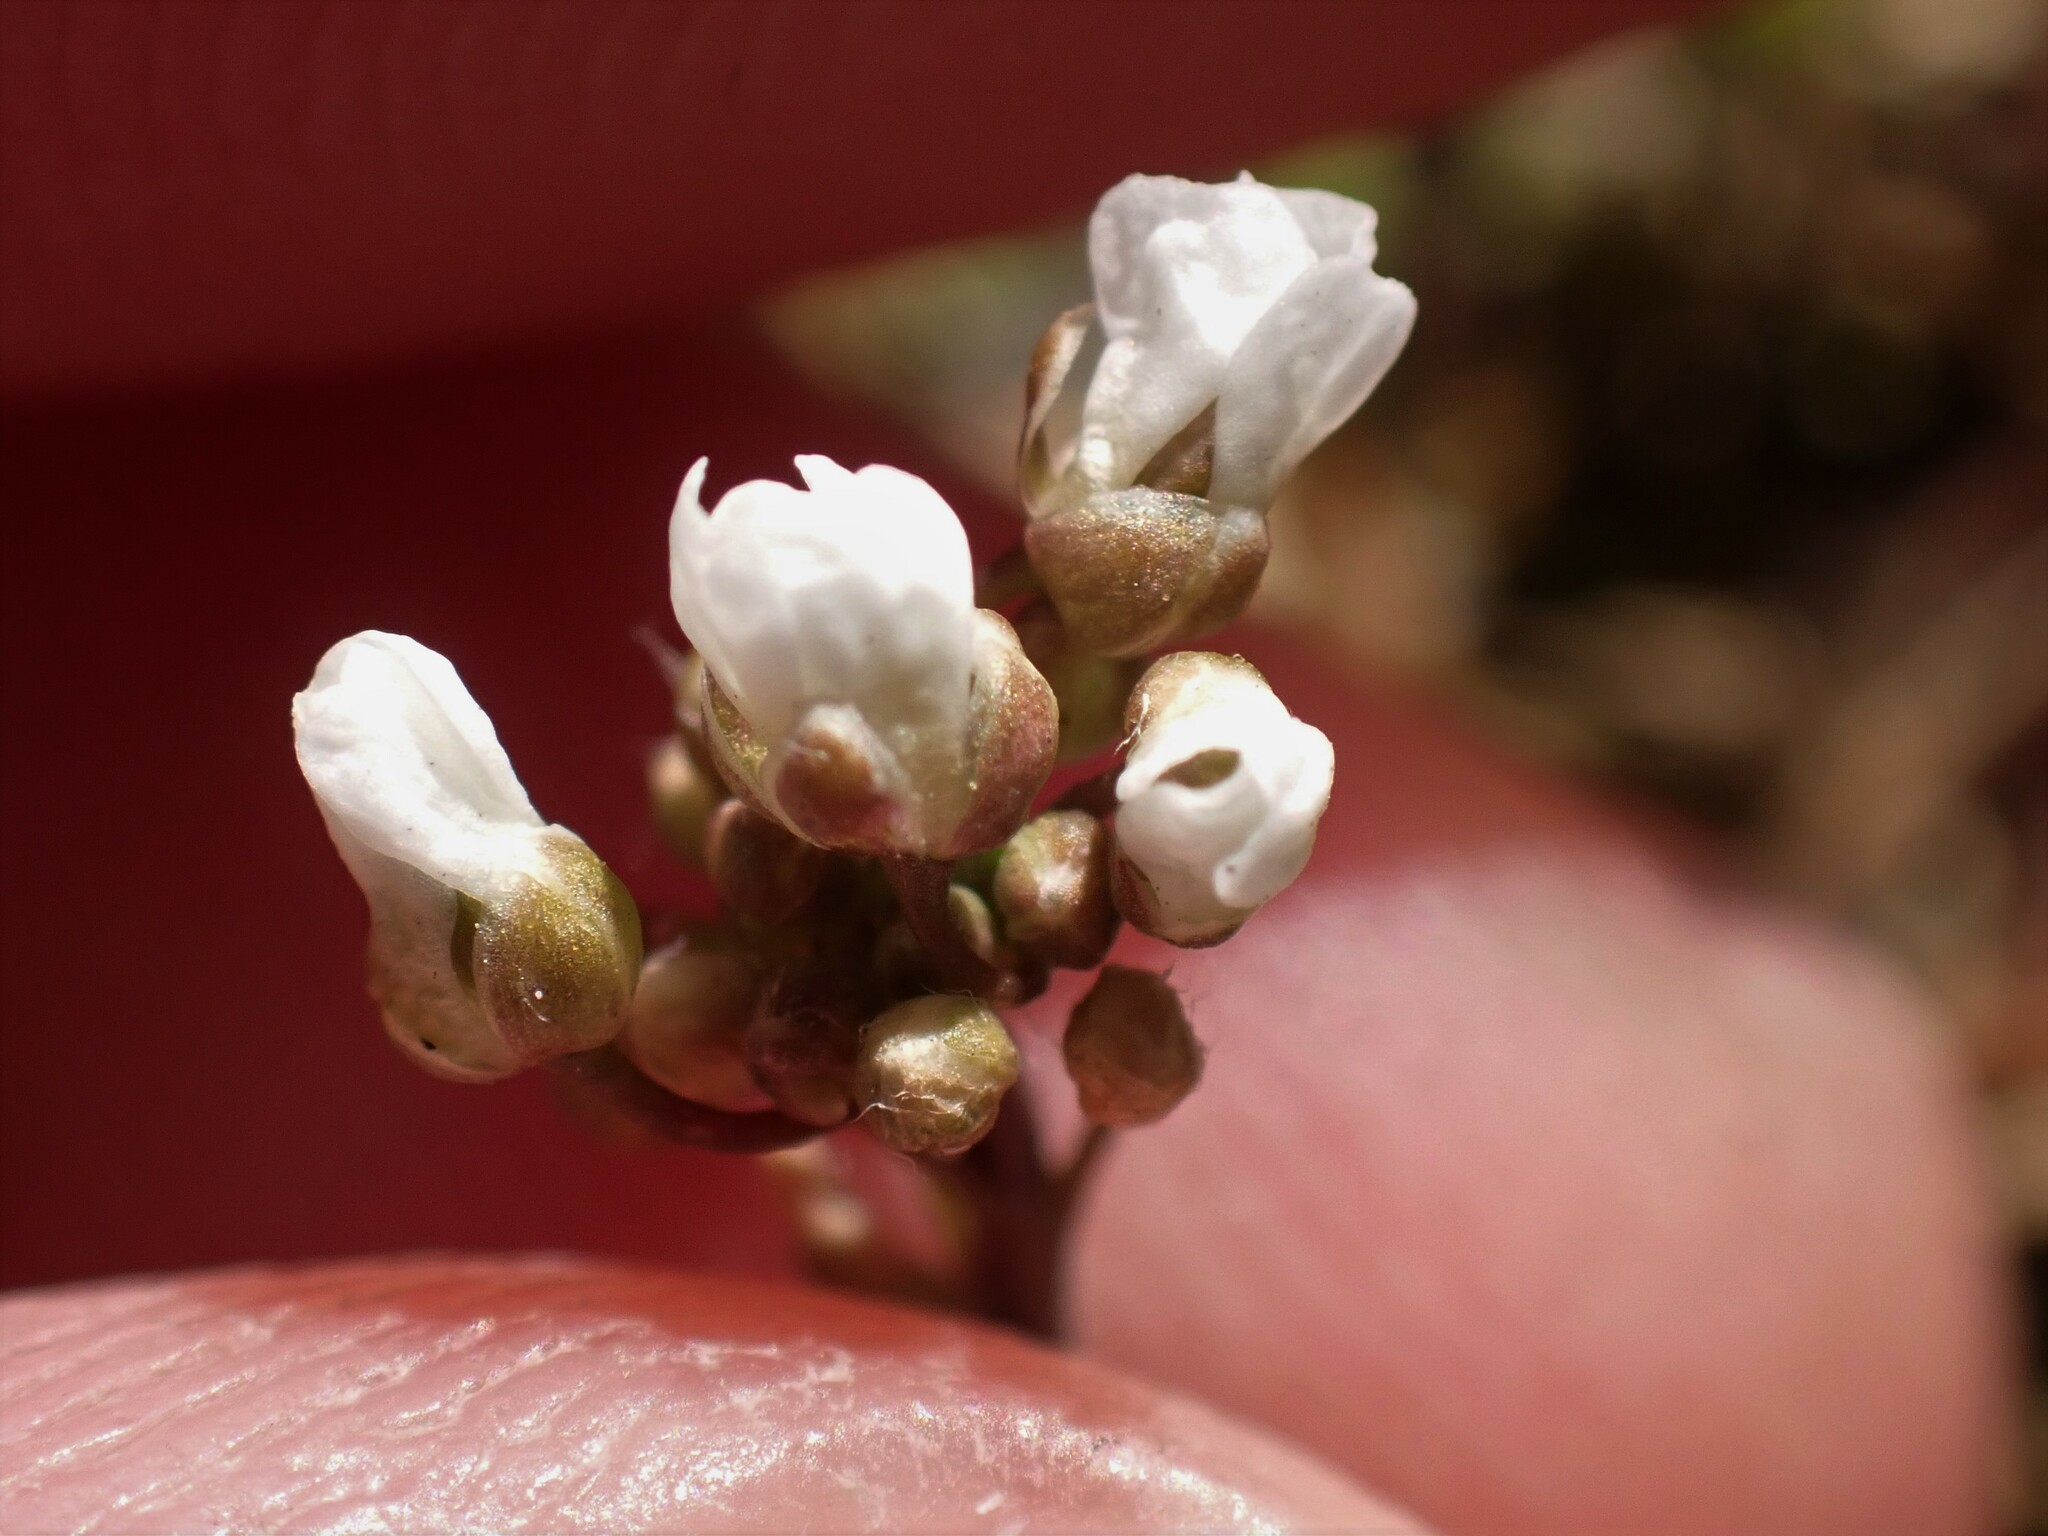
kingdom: Plantae
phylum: Tracheophyta
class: Magnoliopsida
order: Brassicales
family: Brassicaceae
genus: Draba
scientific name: Draba verna
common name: Spring draba
